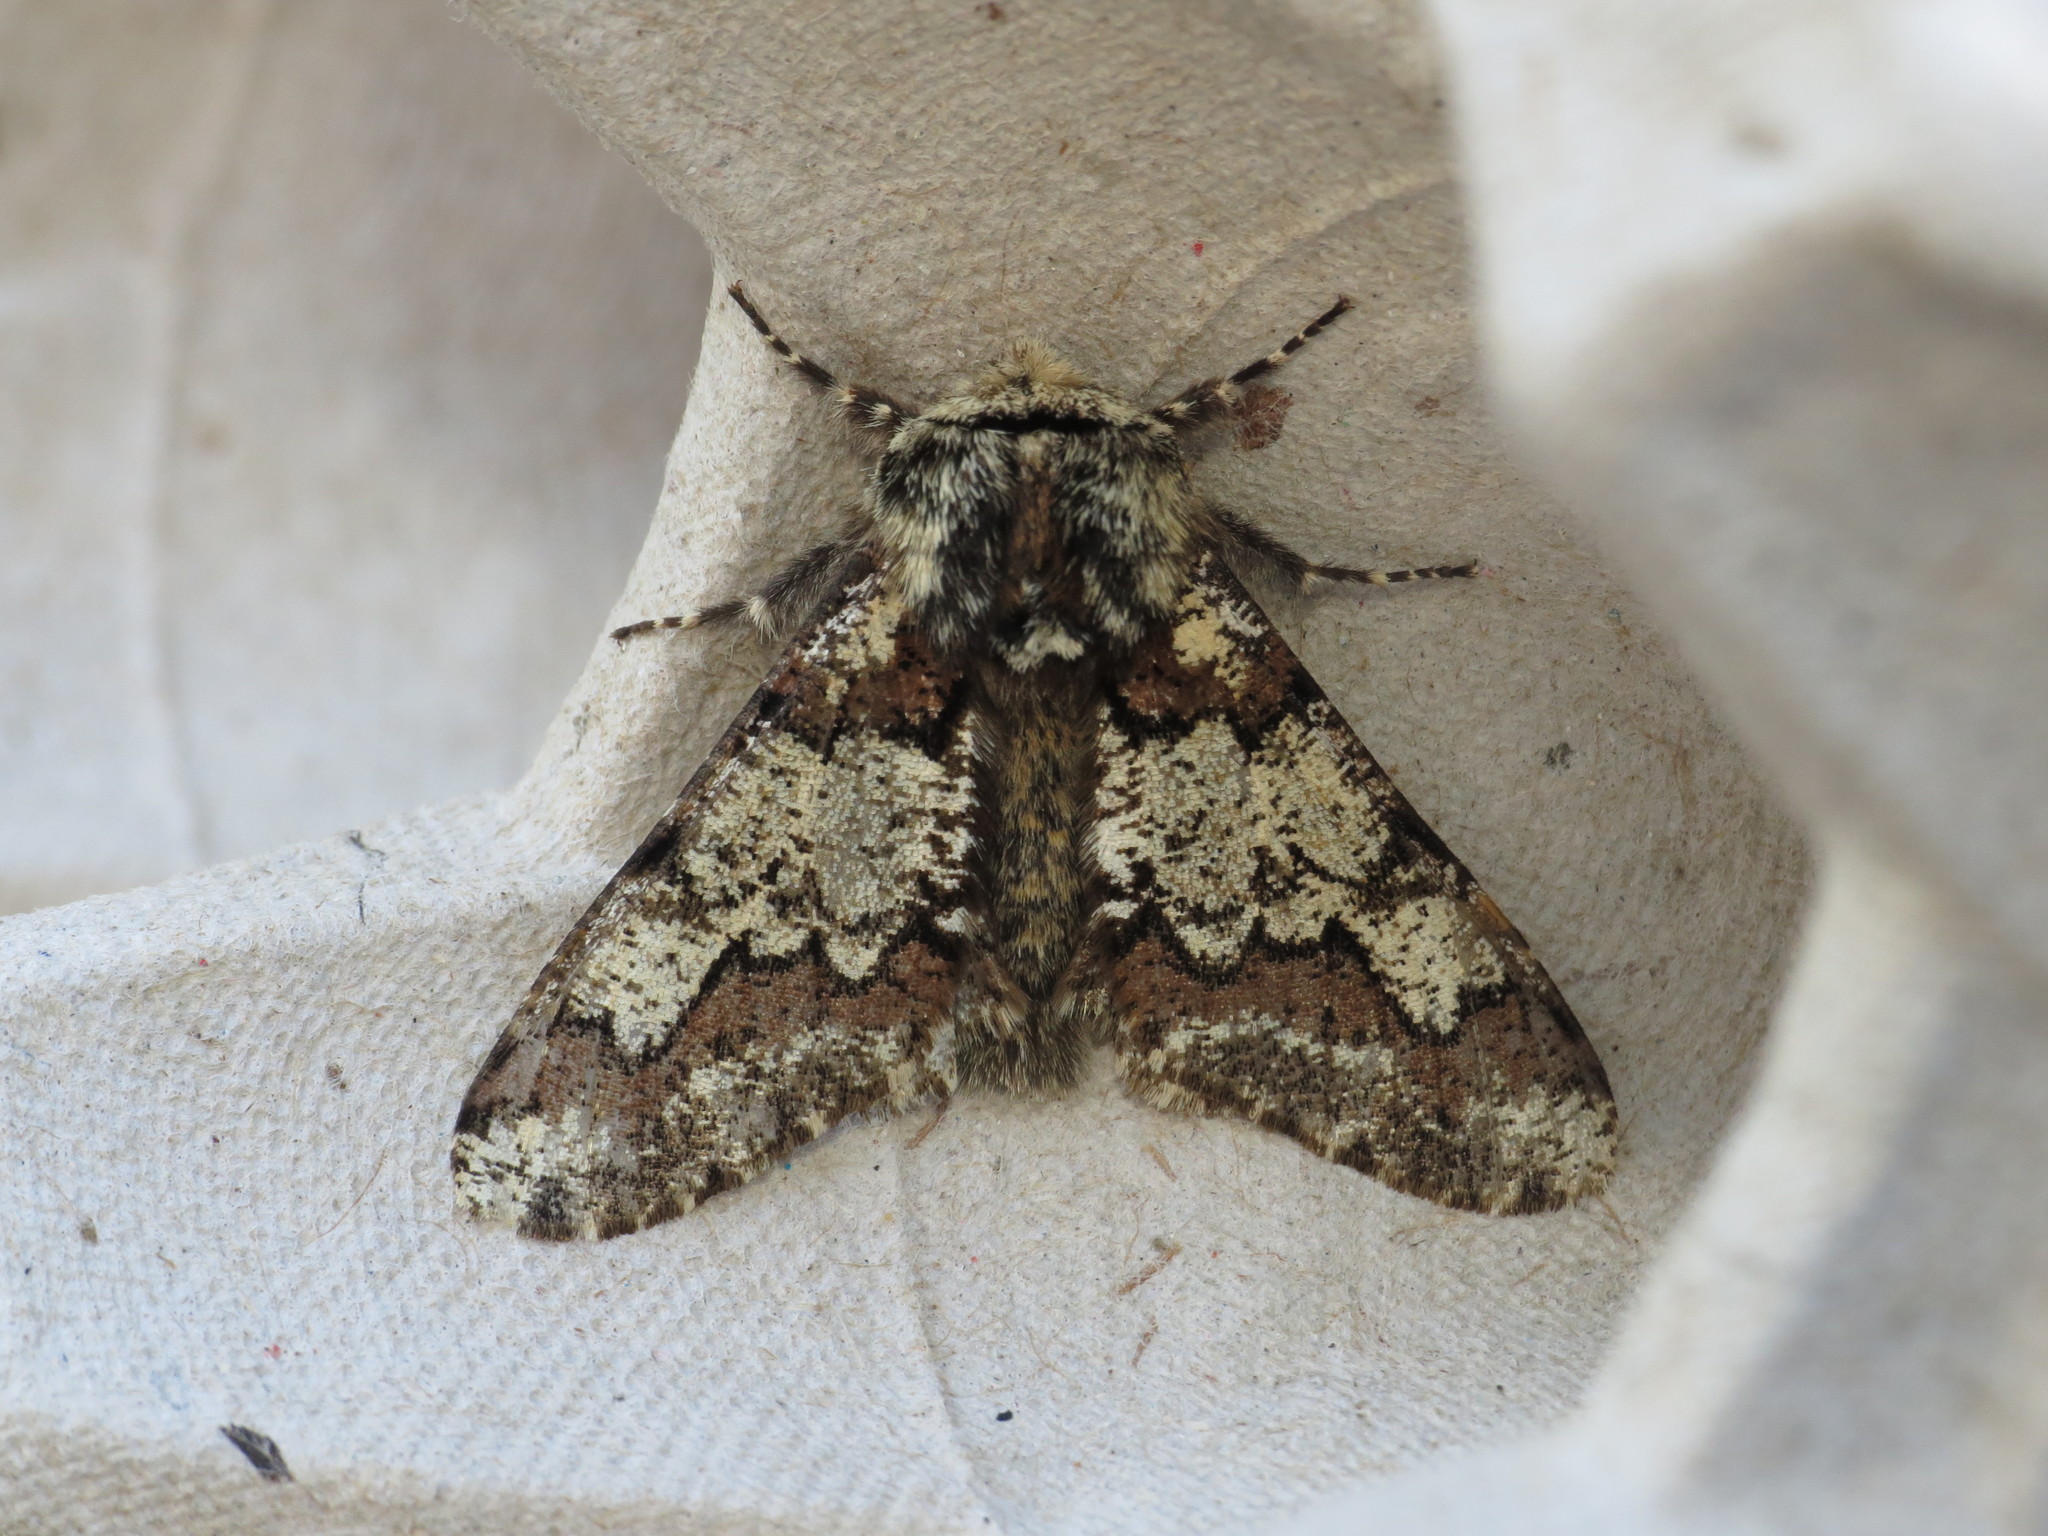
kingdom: Animalia
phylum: Arthropoda
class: Insecta
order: Lepidoptera
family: Geometridae
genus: Biston
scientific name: Biston strataria
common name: Oak beauty
